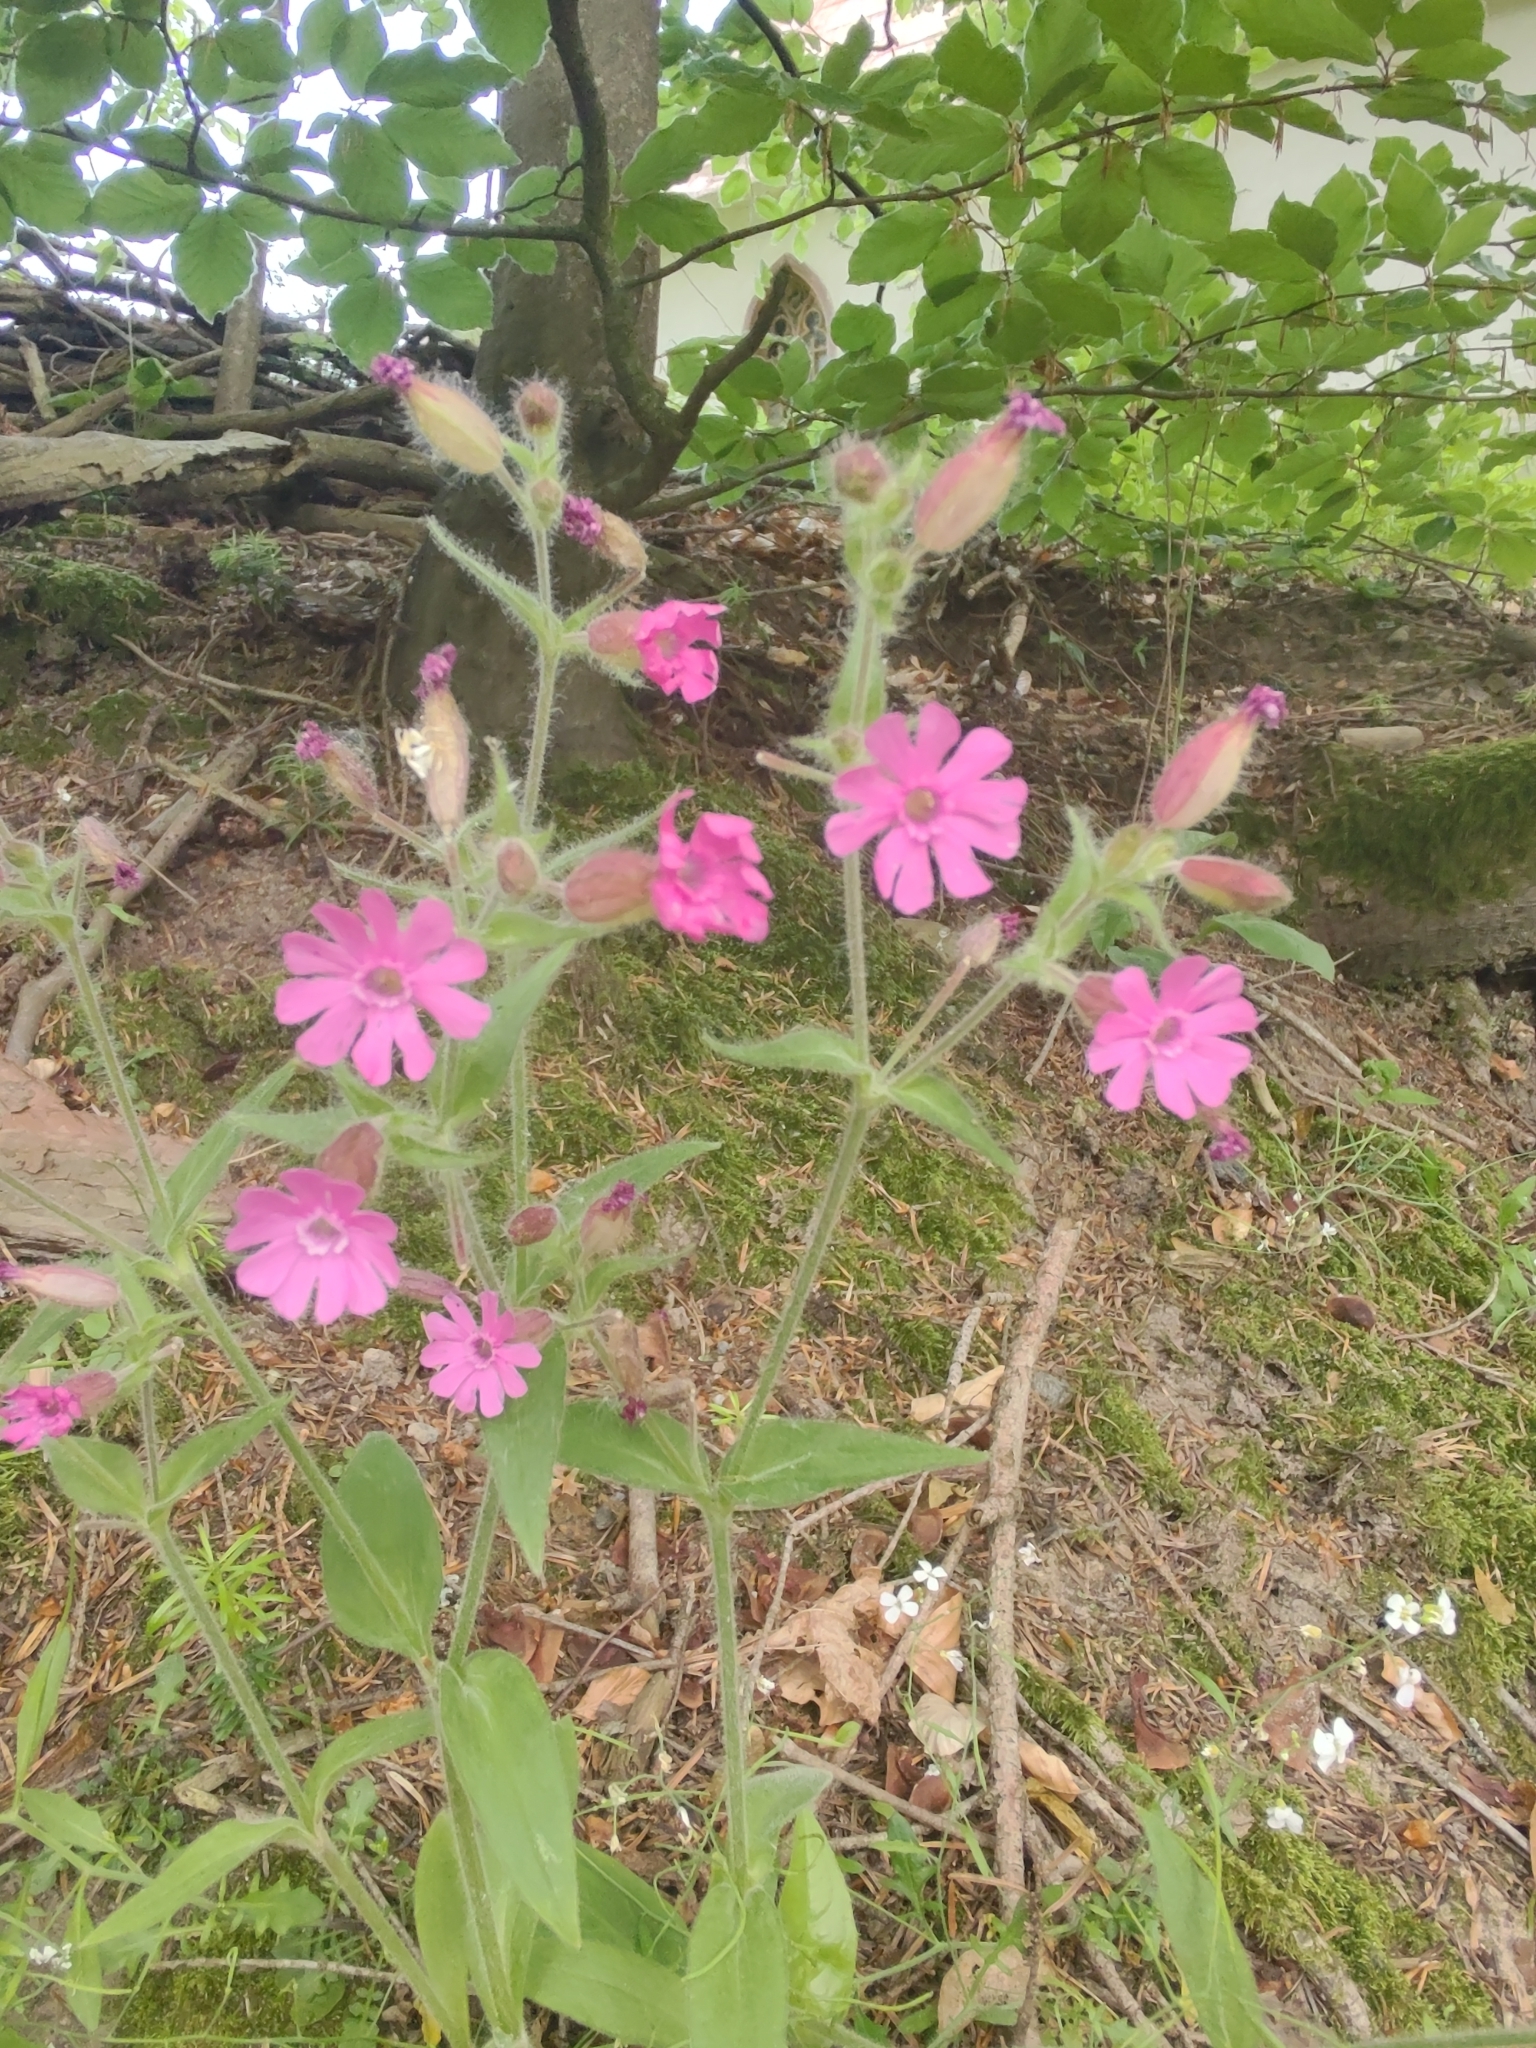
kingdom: Plantae
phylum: Tracheophyta
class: Magnoliopsida
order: Caryophyllales
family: Caryophyllaceae
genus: Silene
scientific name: Silene dioica
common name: Red campion
